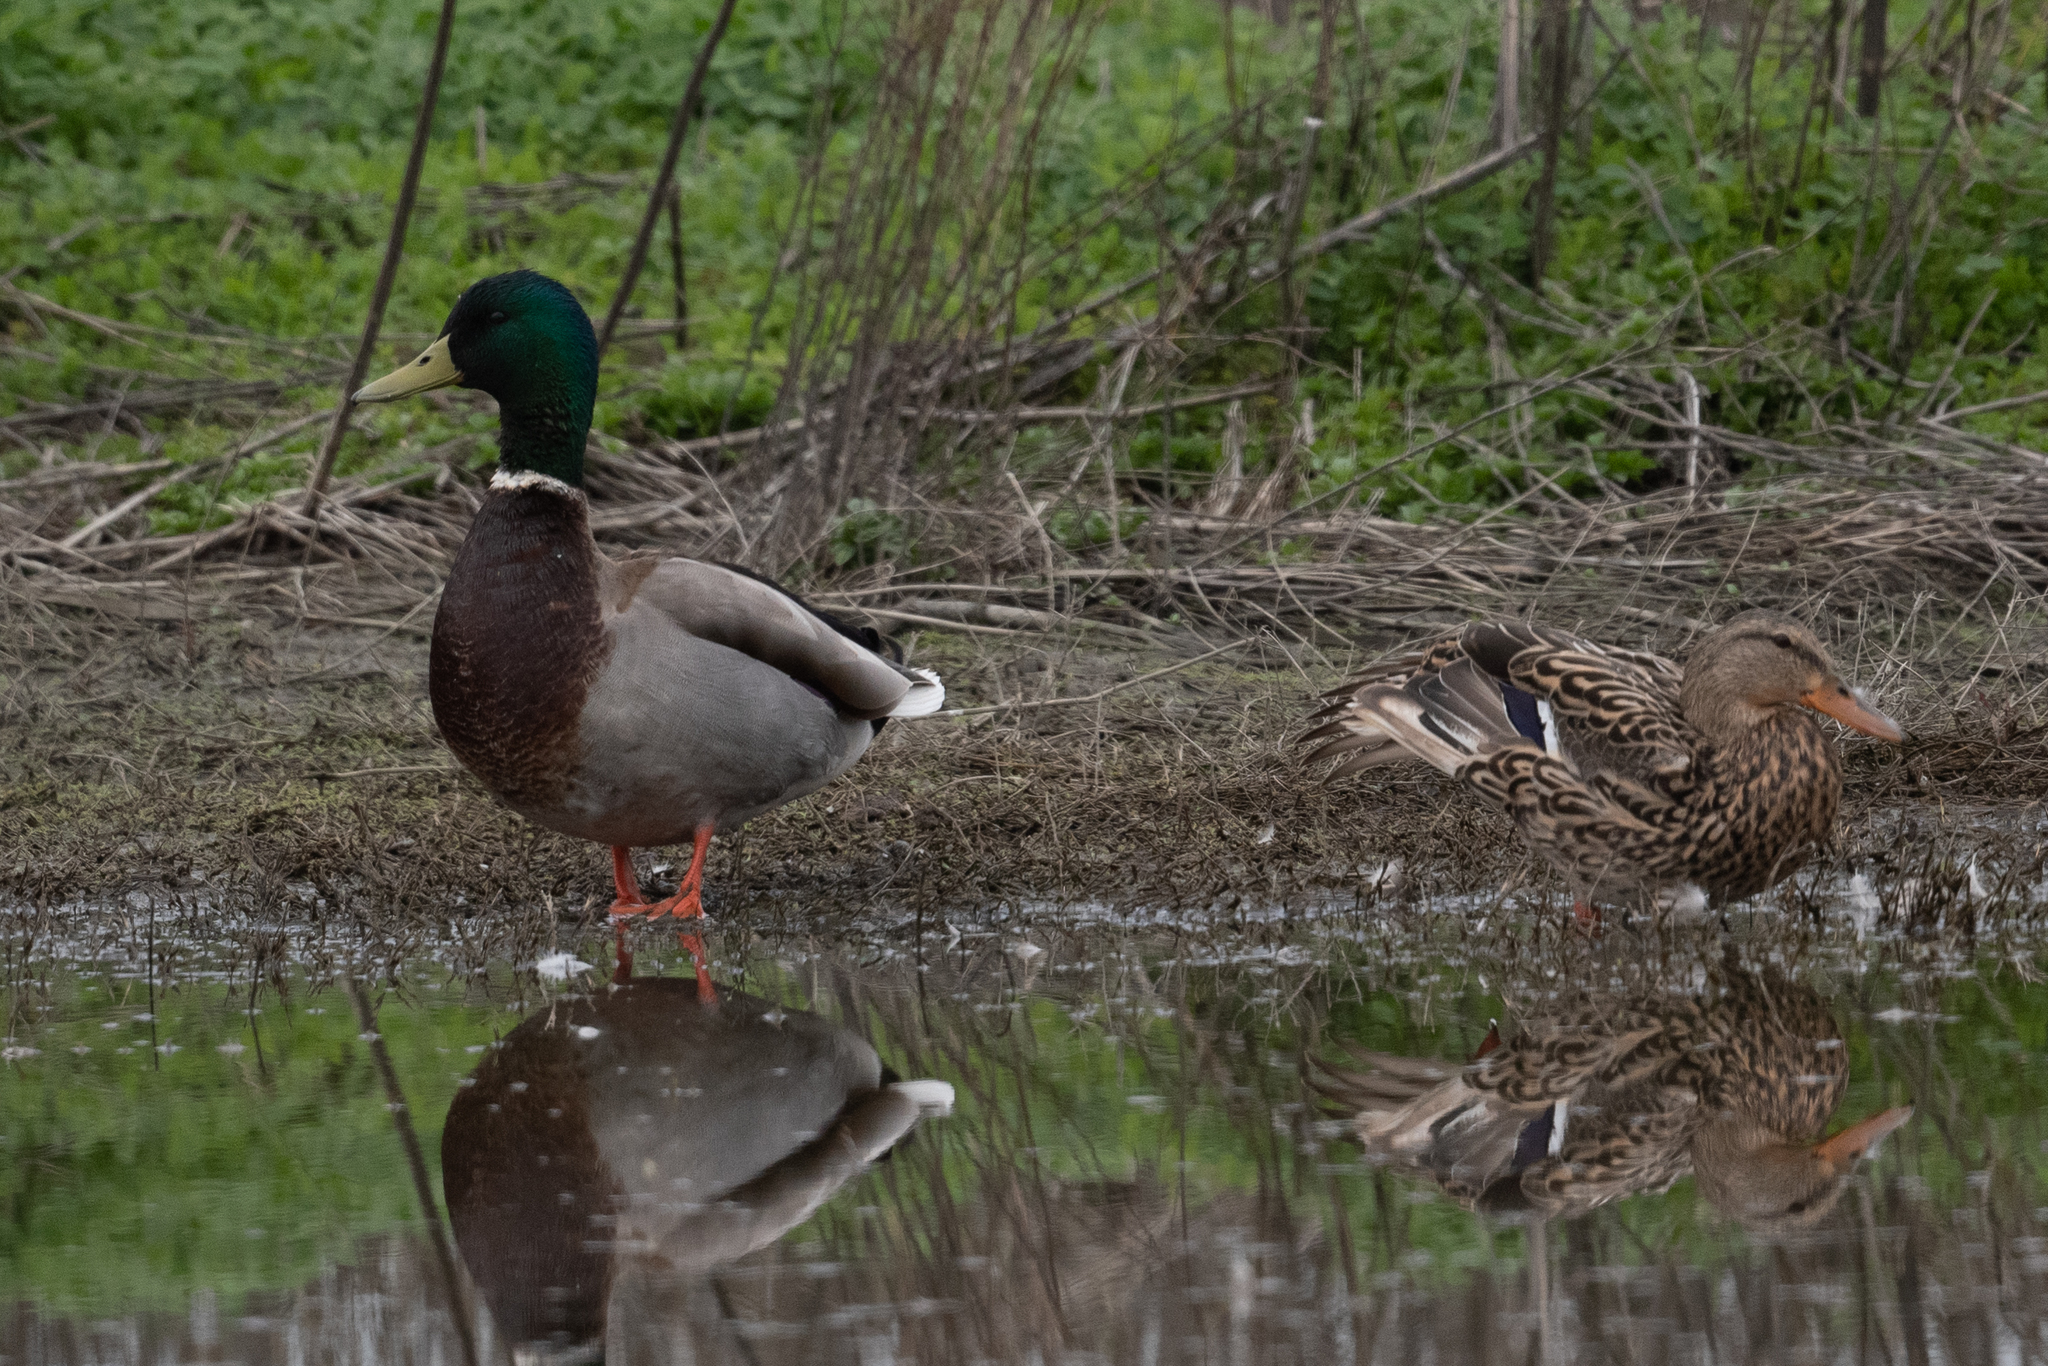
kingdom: Animalia
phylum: Chordata
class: Aves
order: Anseriformes
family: Anatidae
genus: Anas
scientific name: Anas platyrhynchos
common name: Mallard
